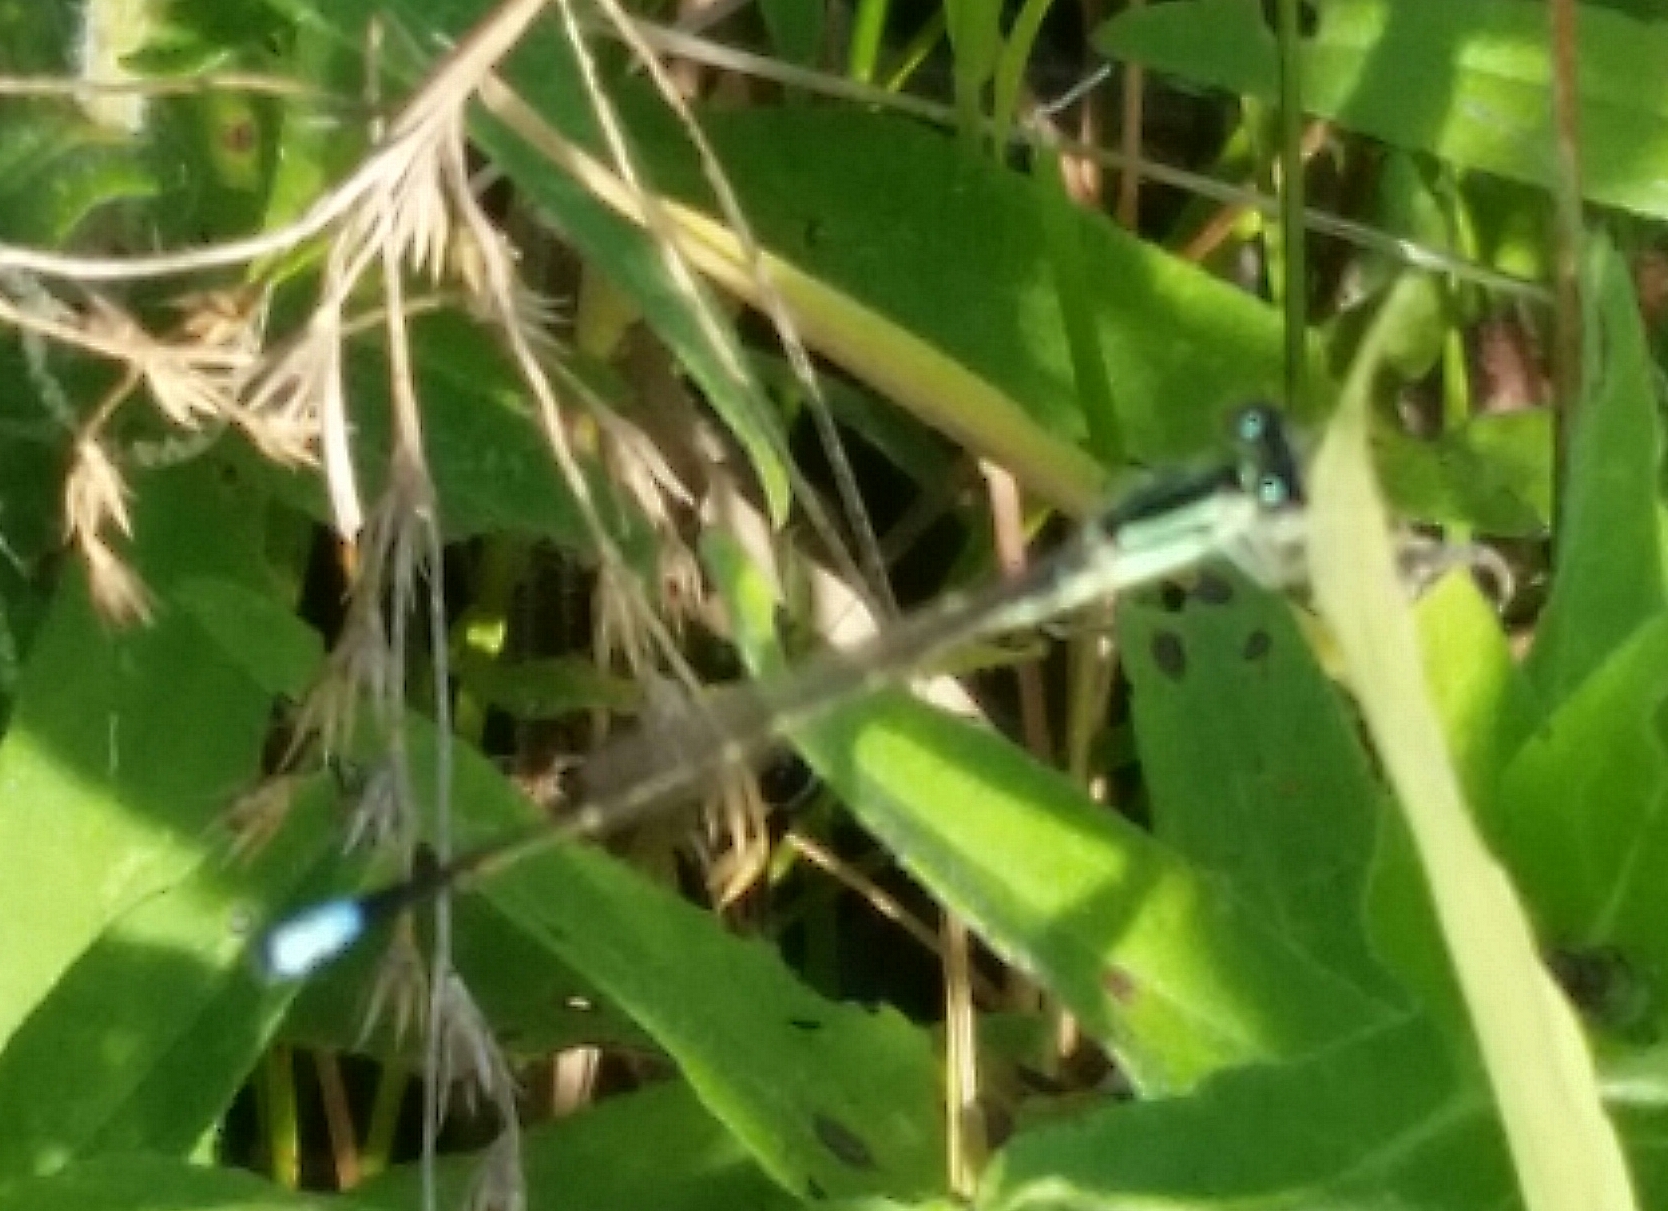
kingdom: Animalia
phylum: Arthropoda
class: Insecta
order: Odonata
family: Coenagrionidae
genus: Ischnura
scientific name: Ischnura verticalis
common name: Eastern forktail
